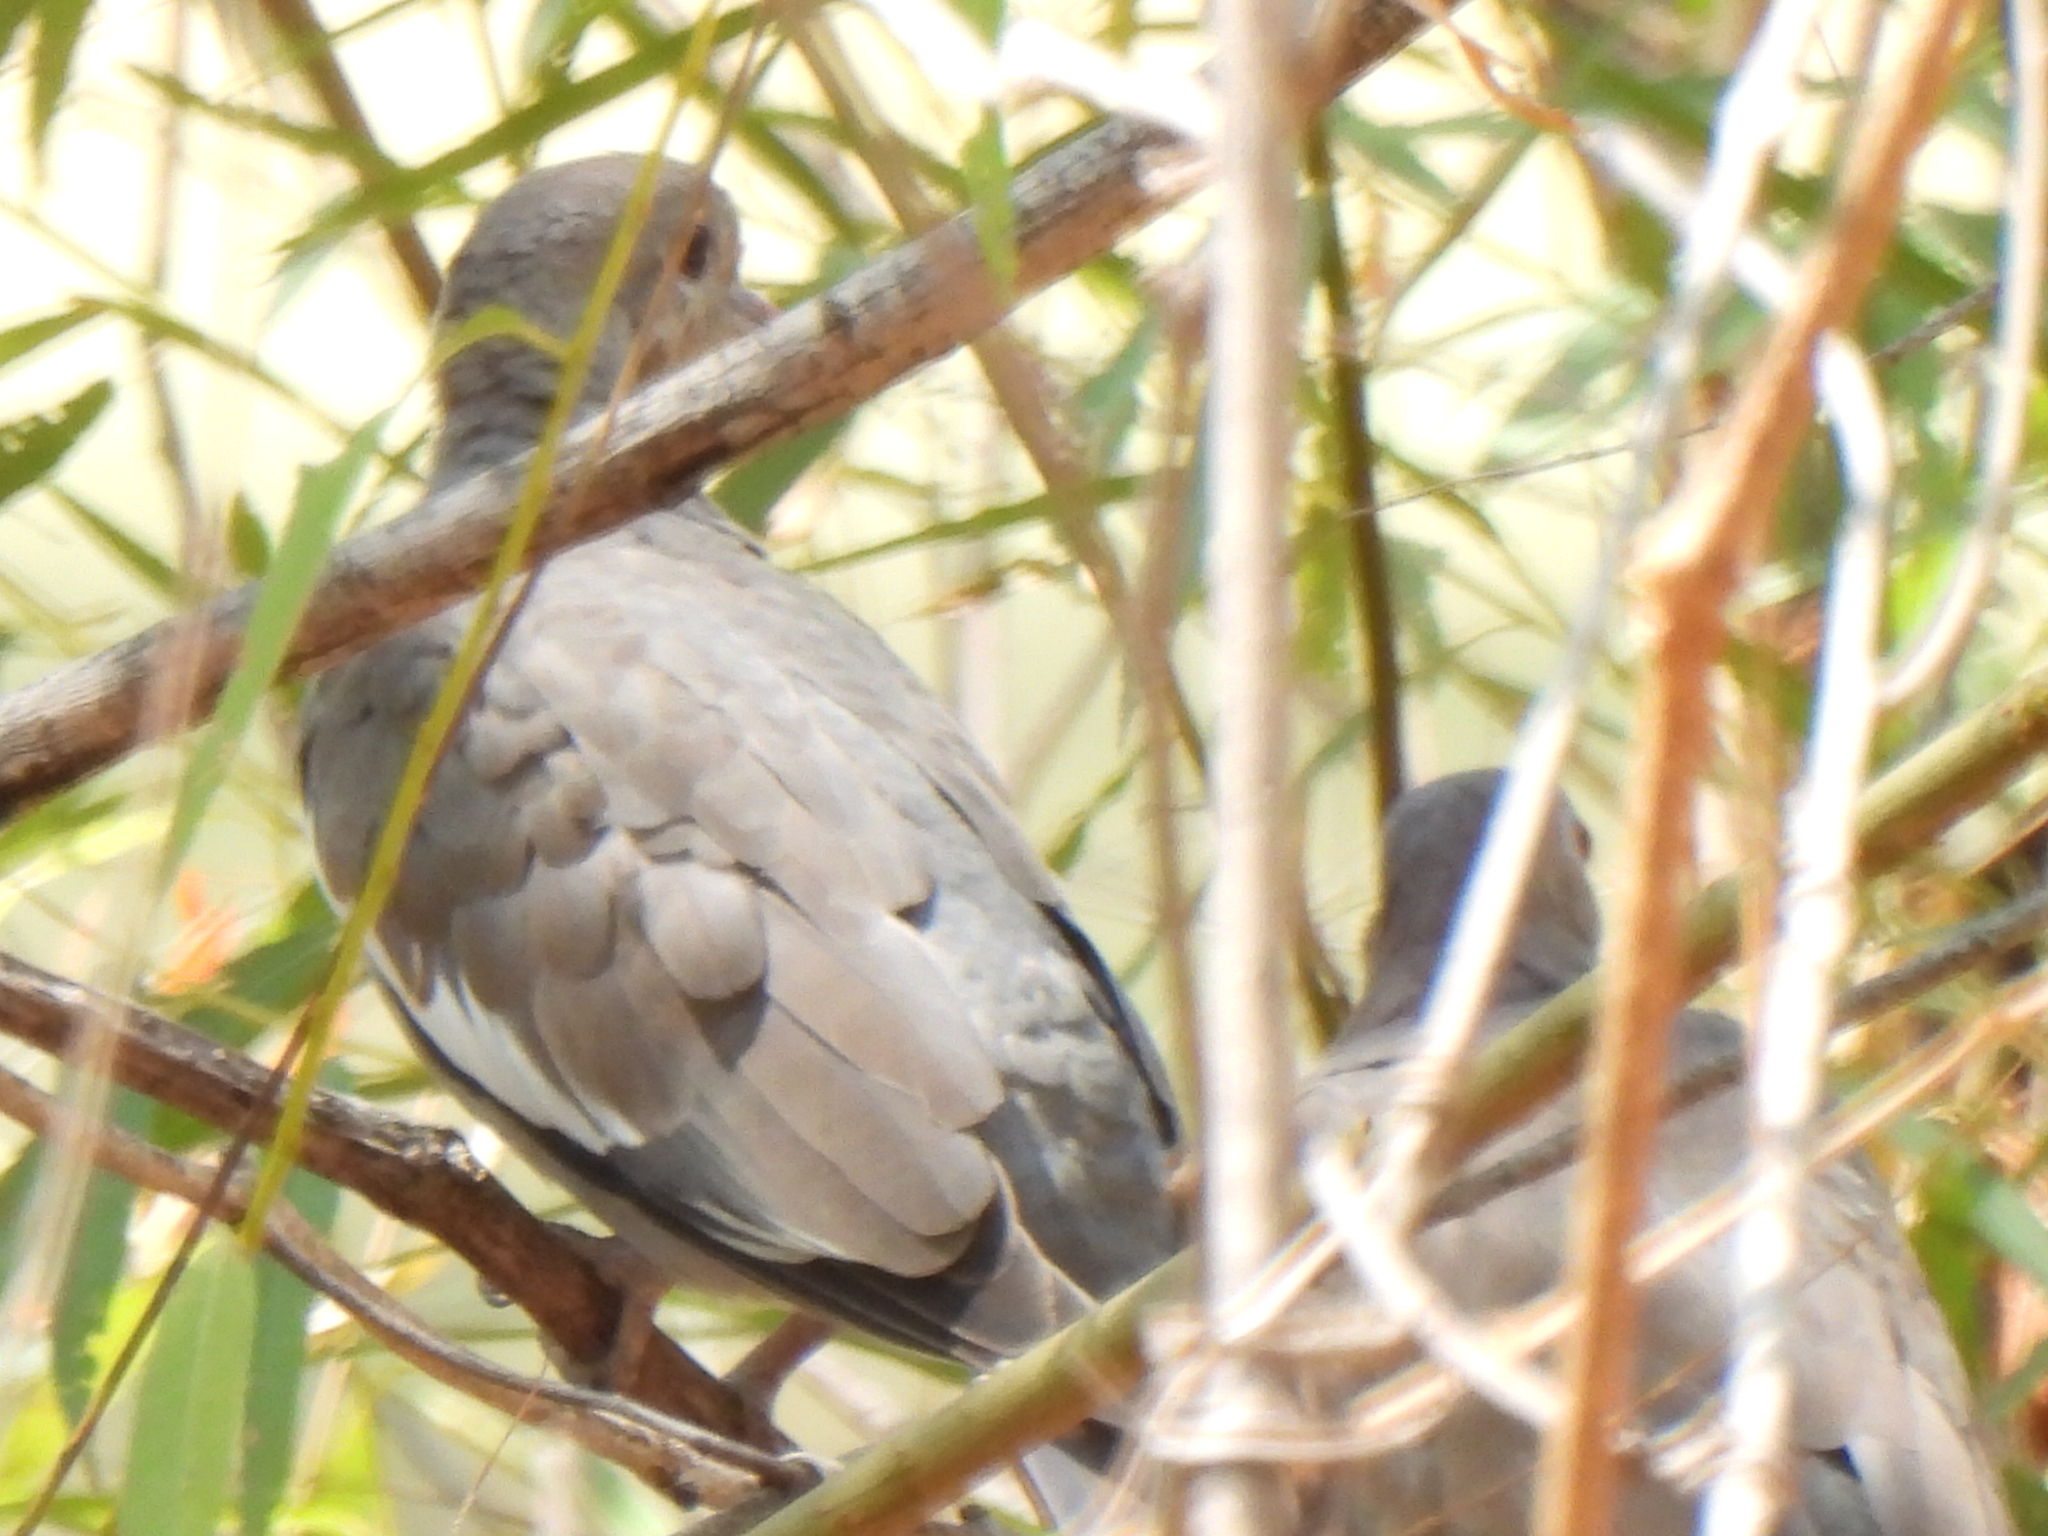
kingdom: Animalia
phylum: Chordata
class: Aves
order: Columbiformes
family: Columbidae
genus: Zenaida
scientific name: Zenaida asiatica
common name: White-winged dove
